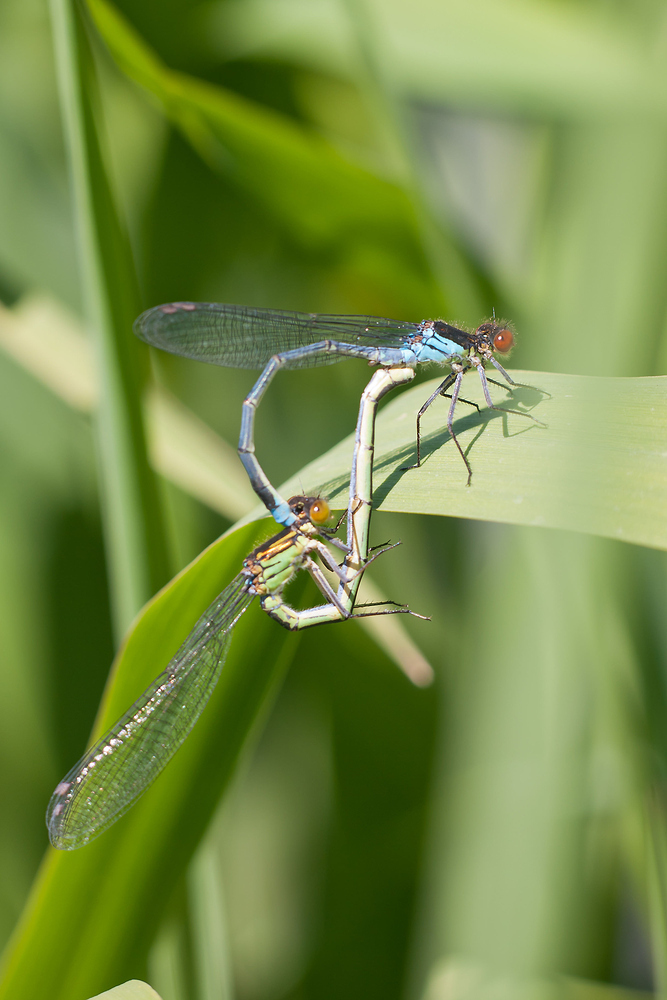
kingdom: Animalia
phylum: Arthropoda
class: Insecta
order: Odonata
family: Coenagrionidae
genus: Erythromma
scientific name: Erythromma najas
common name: Red-eyed damselfly
